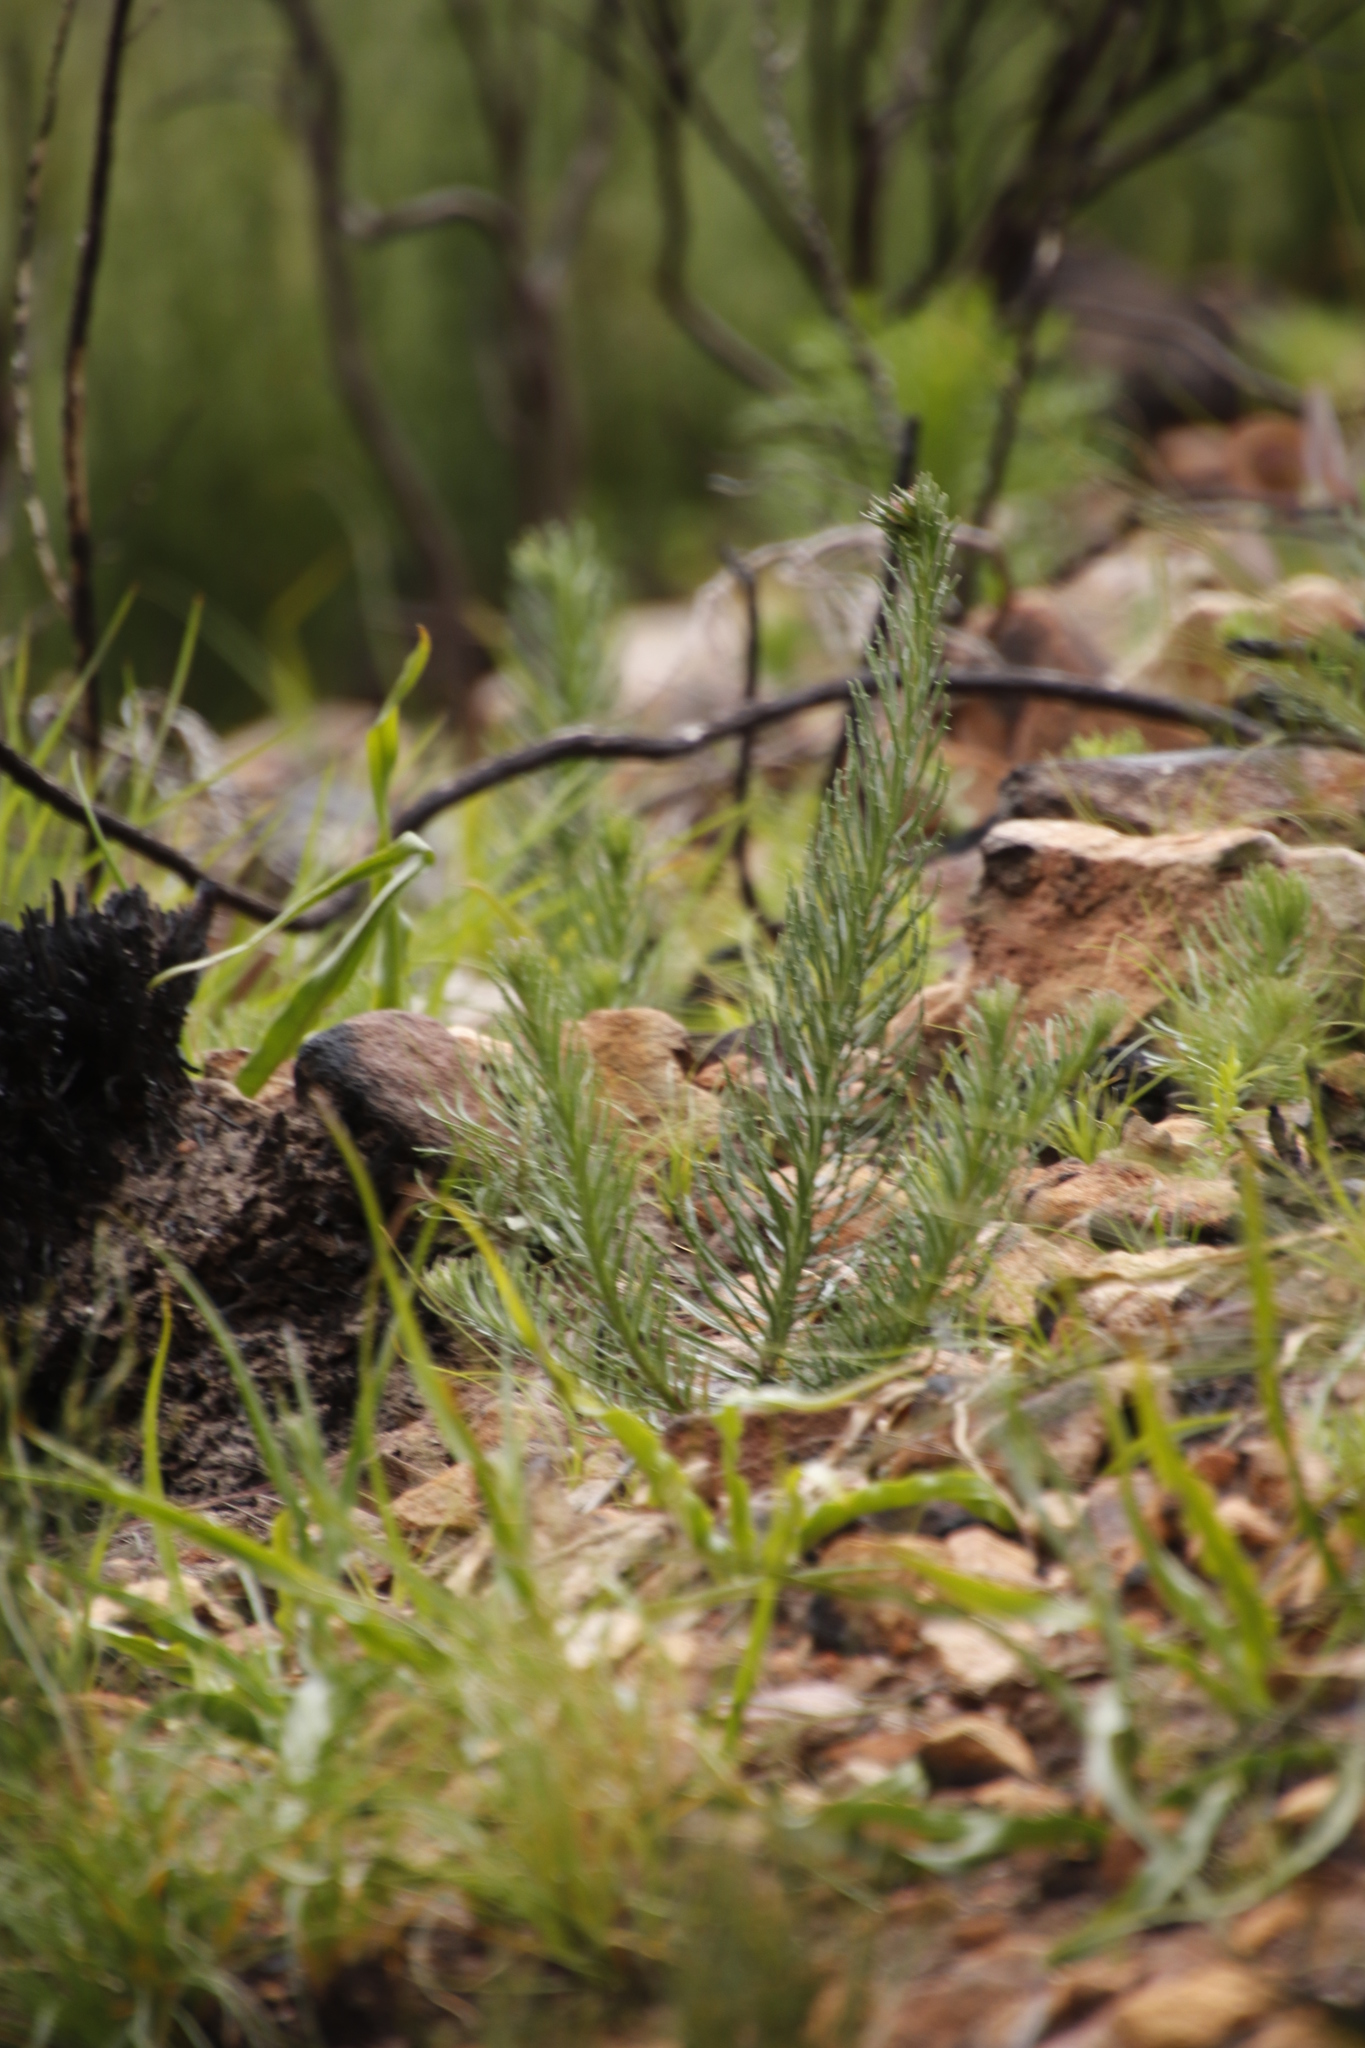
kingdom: Plantae
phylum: Tracheophyta
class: Magnoliopsida
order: Lamiales
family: Scrophulariaceae
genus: Pseudoselago
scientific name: Pseudoselago spuria
